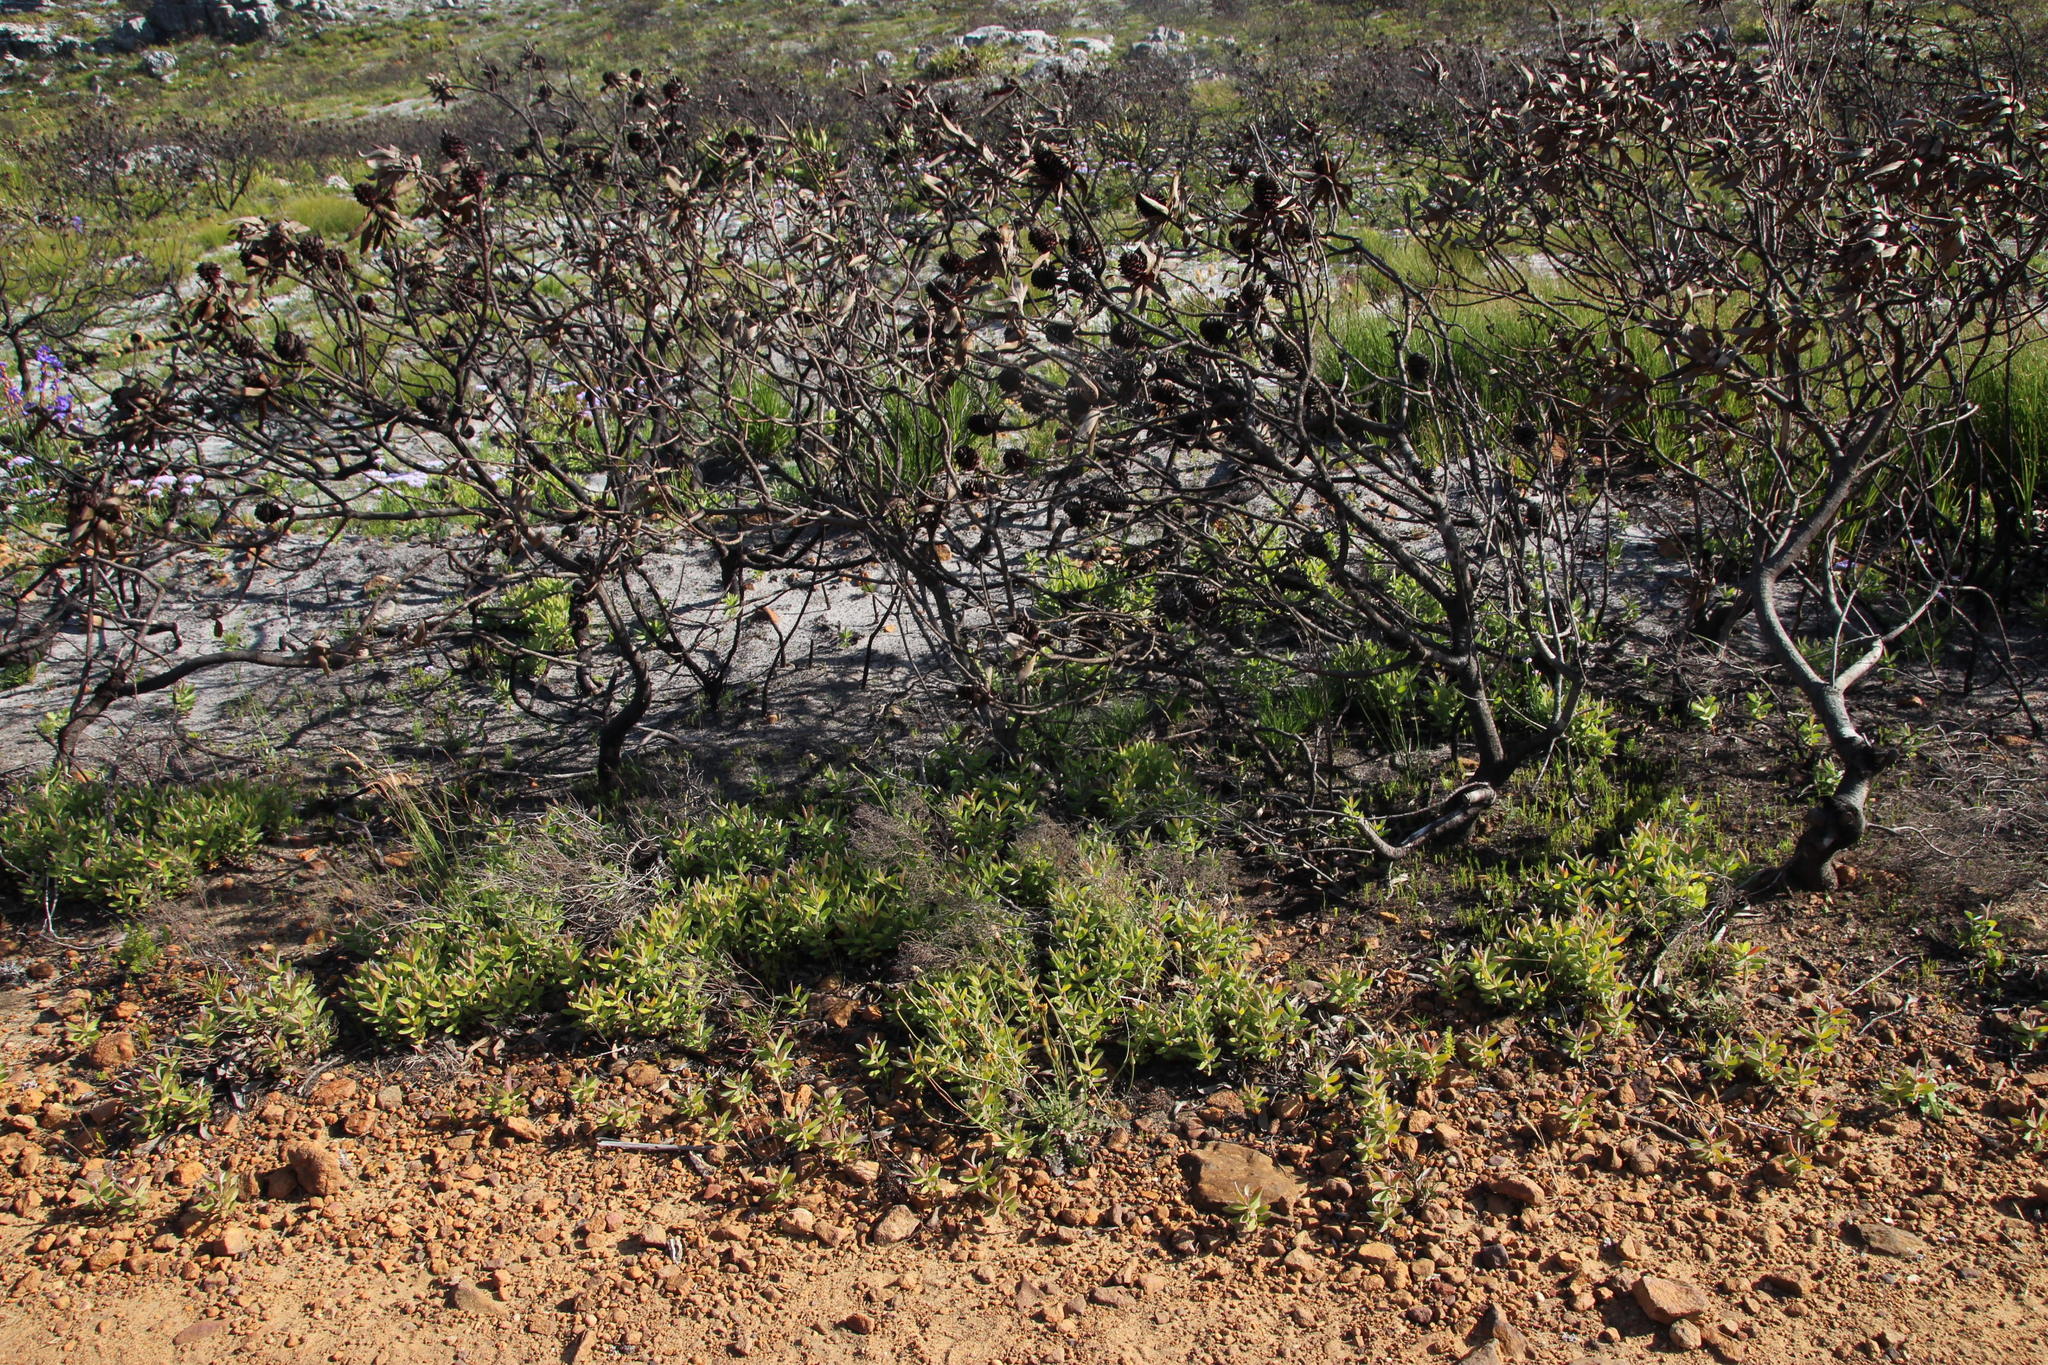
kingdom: Plantae
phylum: Tracheophyta
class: Magnoliopsida
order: Proteales
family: Proteaceae
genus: Leucadendron
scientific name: Leucadendron laureolum
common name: Golden sunshinebush
